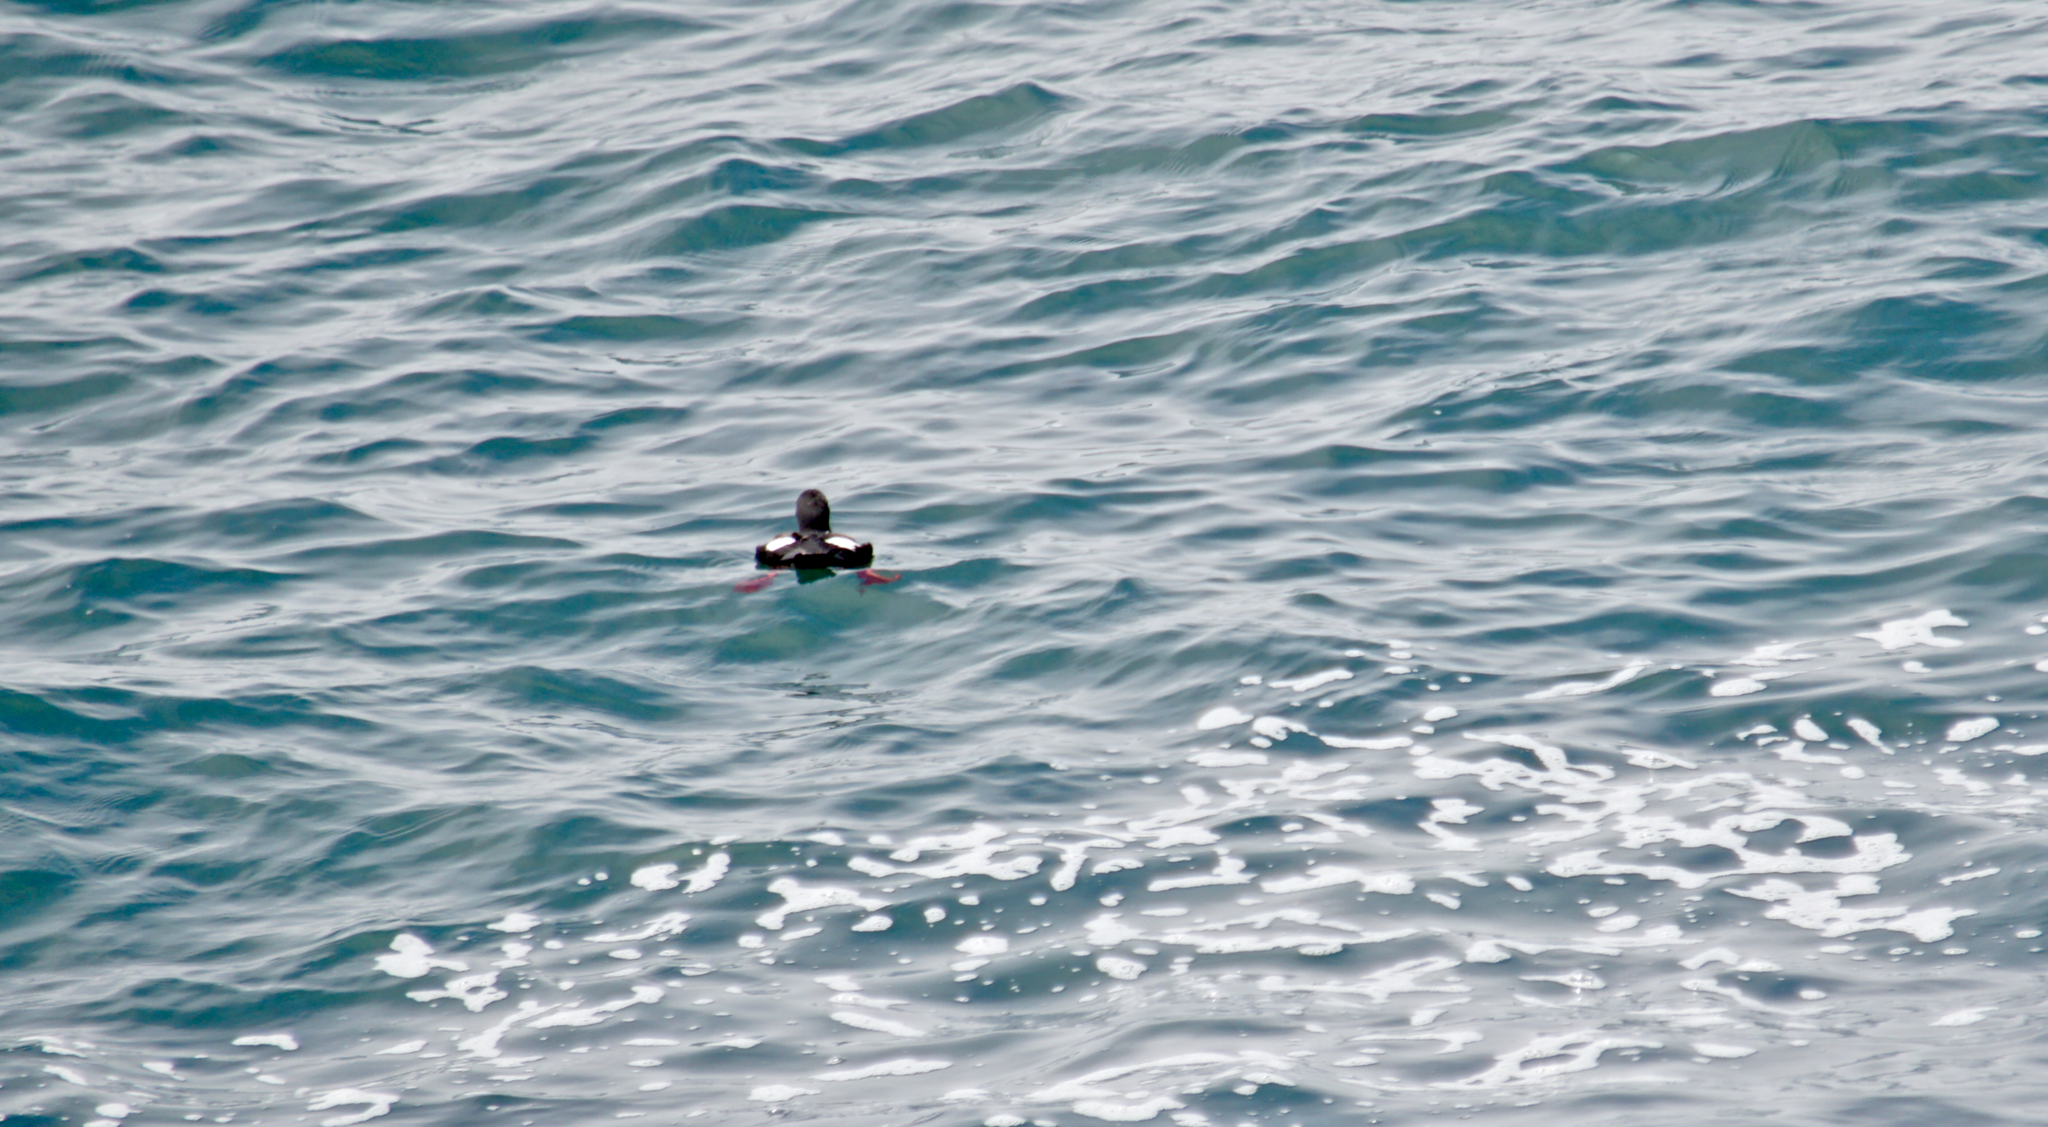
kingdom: Animalia
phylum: Chordata
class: Aves
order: Charadriiformes
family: Alcidae
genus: Cepphus
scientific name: Cepphus columba
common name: Pigeon guillemot
